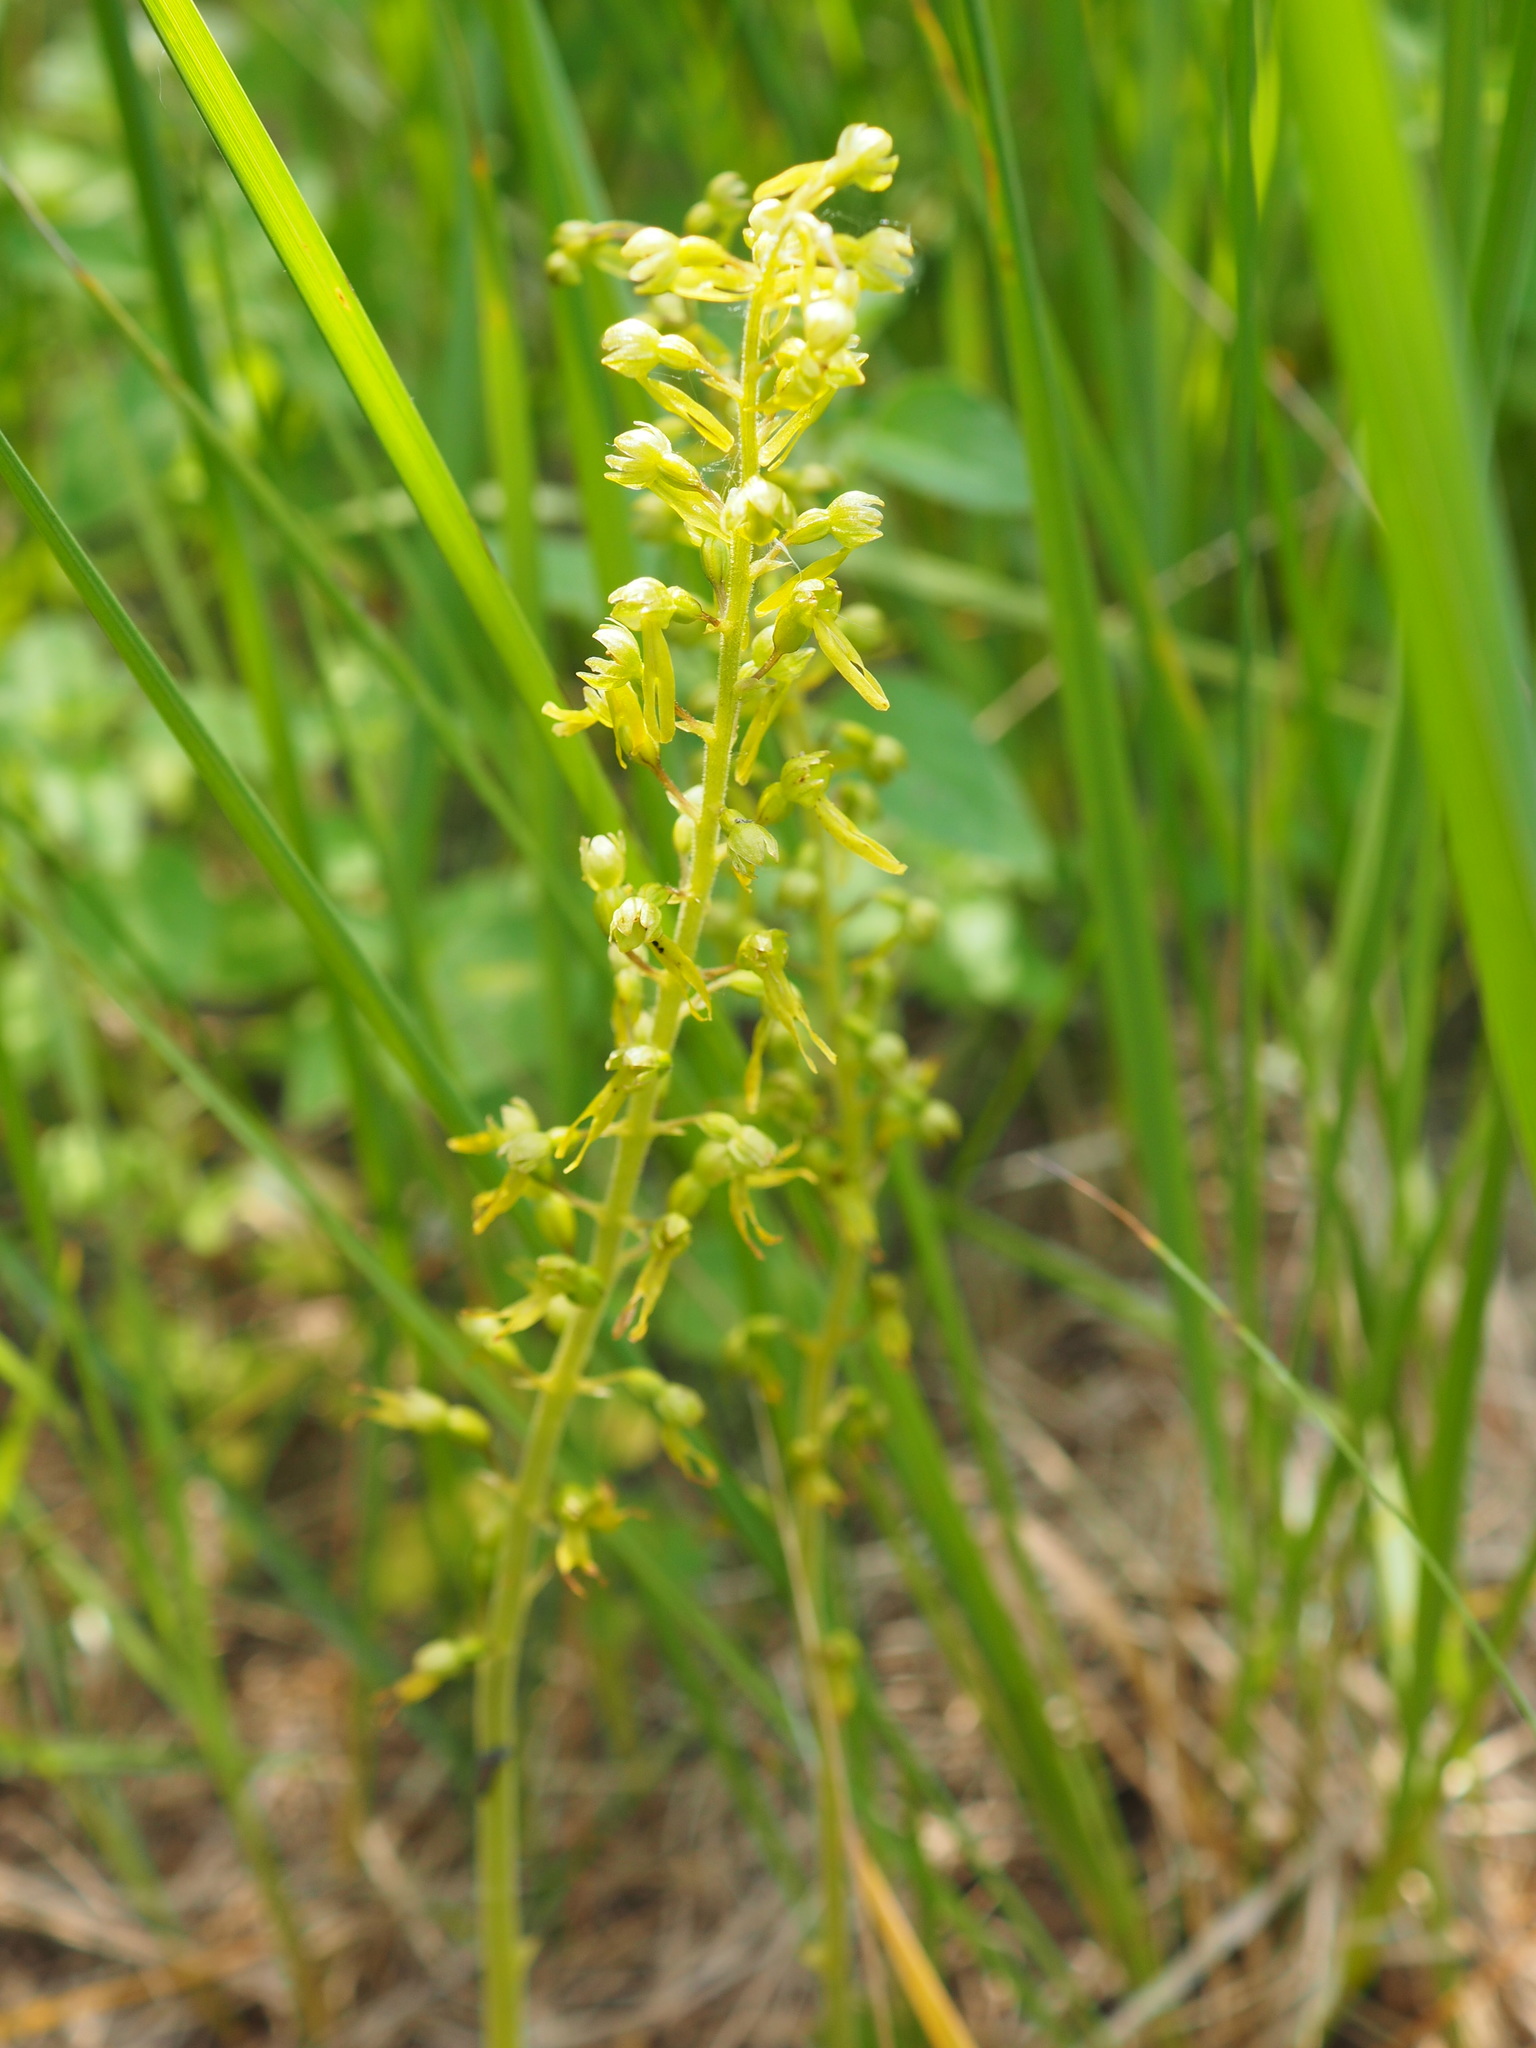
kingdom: Plantae
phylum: Tracheophyta
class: Liliopsida
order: Asparagales
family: Orchidaceae
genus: Neottia
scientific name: Neottia ovata
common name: Common twayblade
